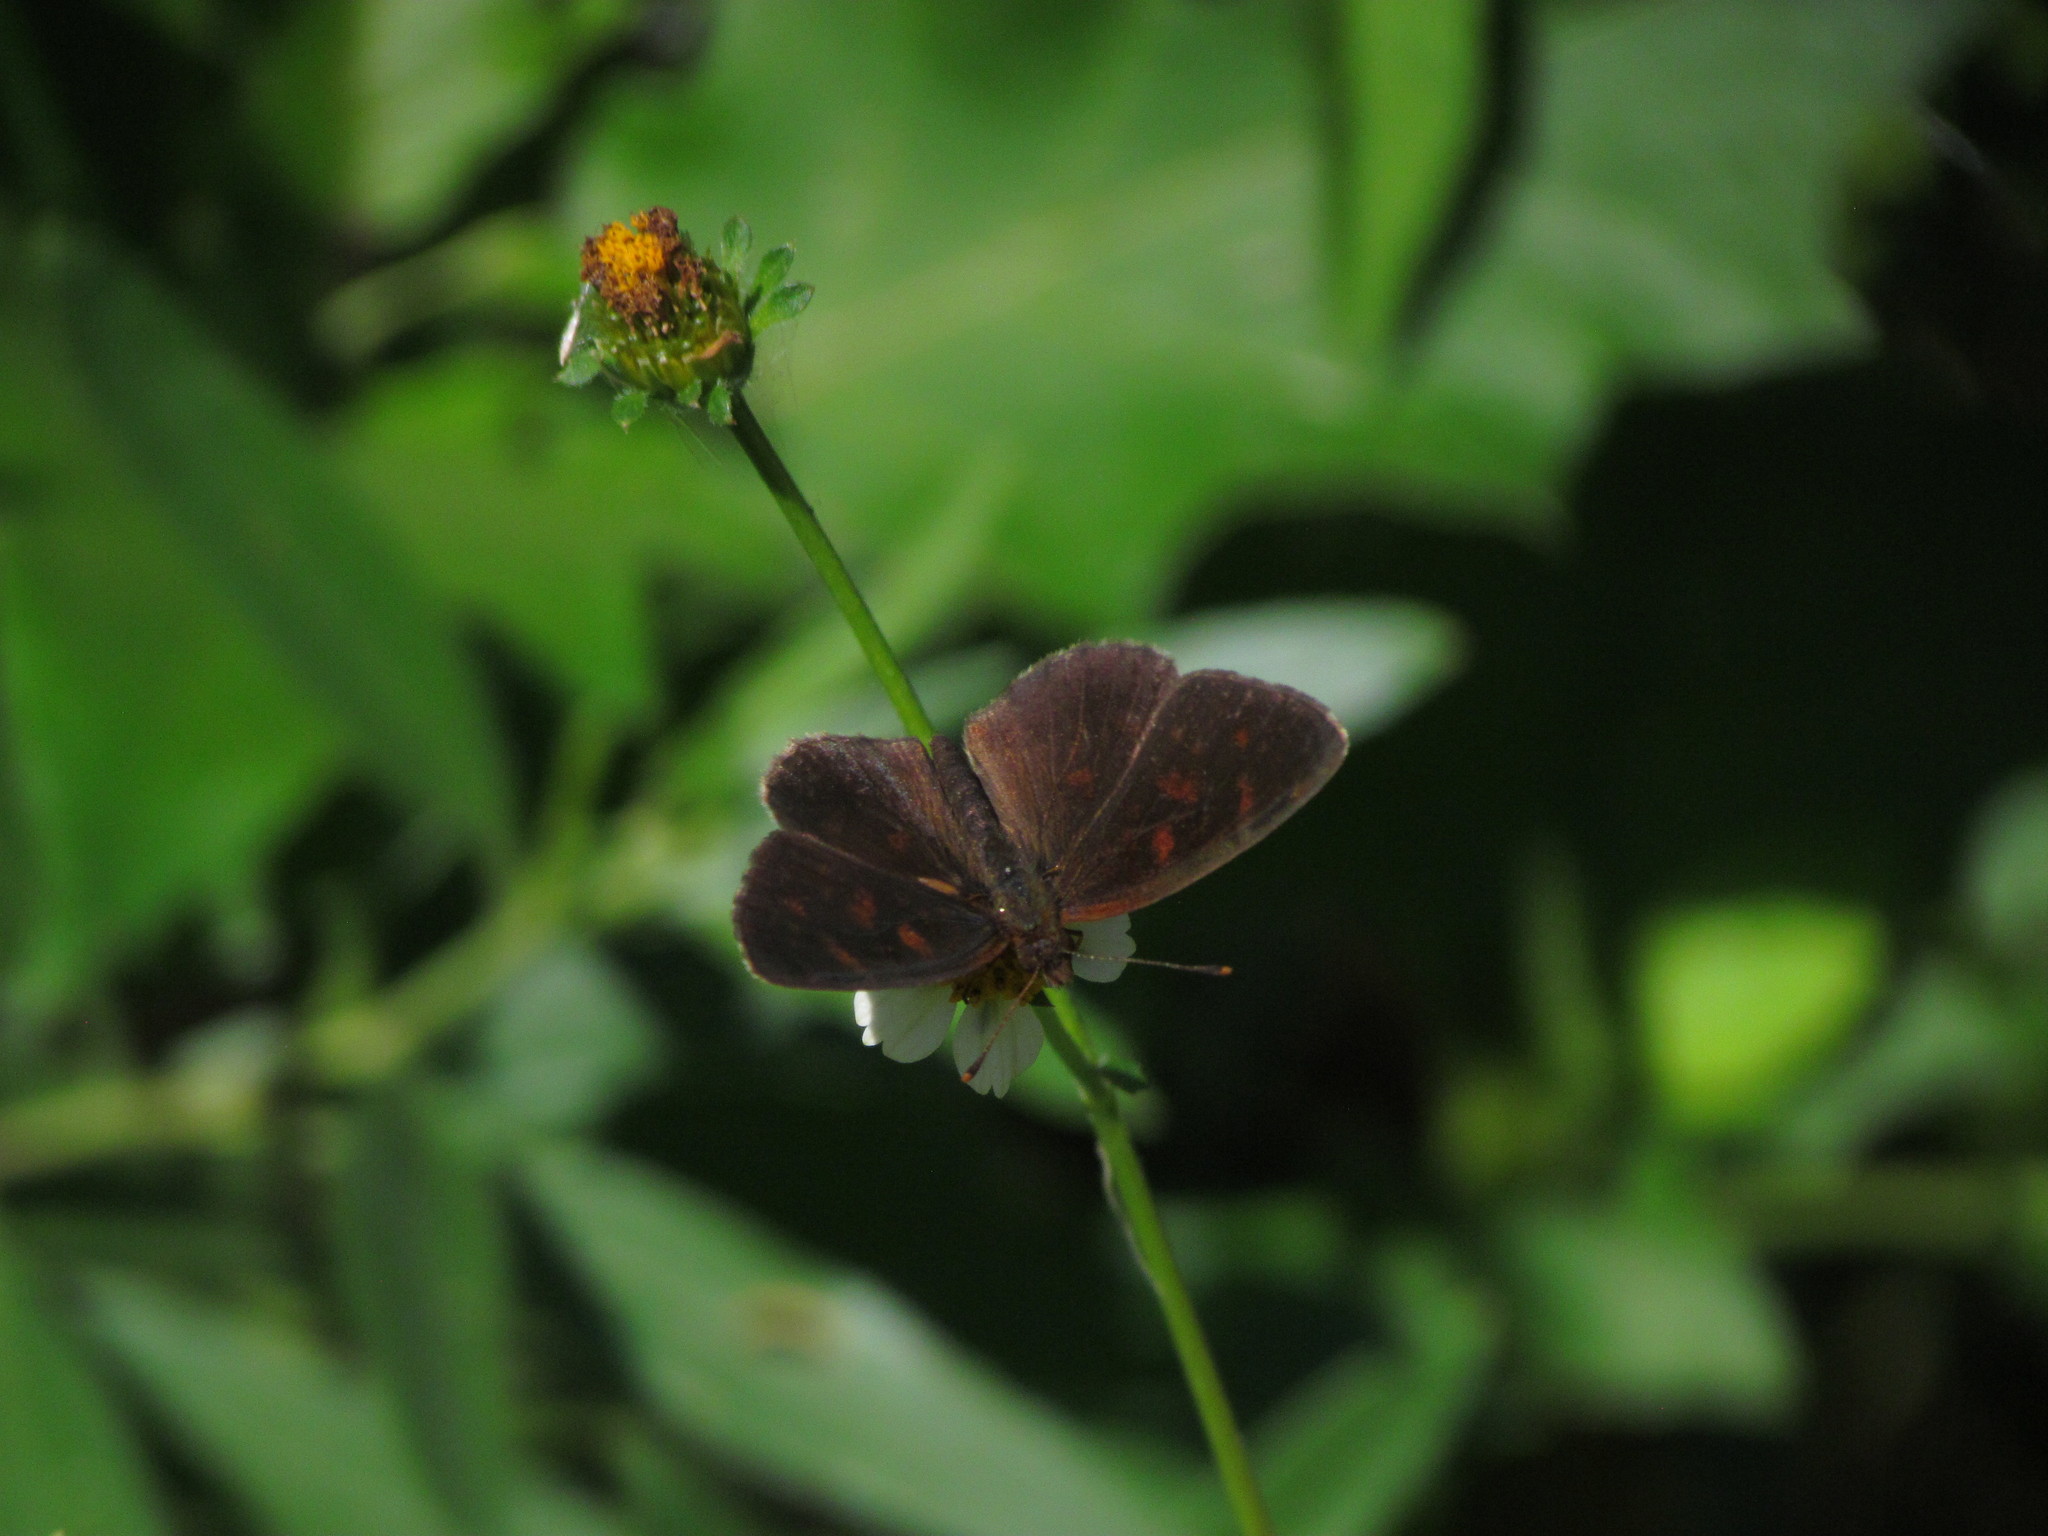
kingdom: Animalia
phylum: Arthropoda
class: Insecta
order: Lepidoptera
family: Nymphalidae
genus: Ortilia
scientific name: Ortilia velica
